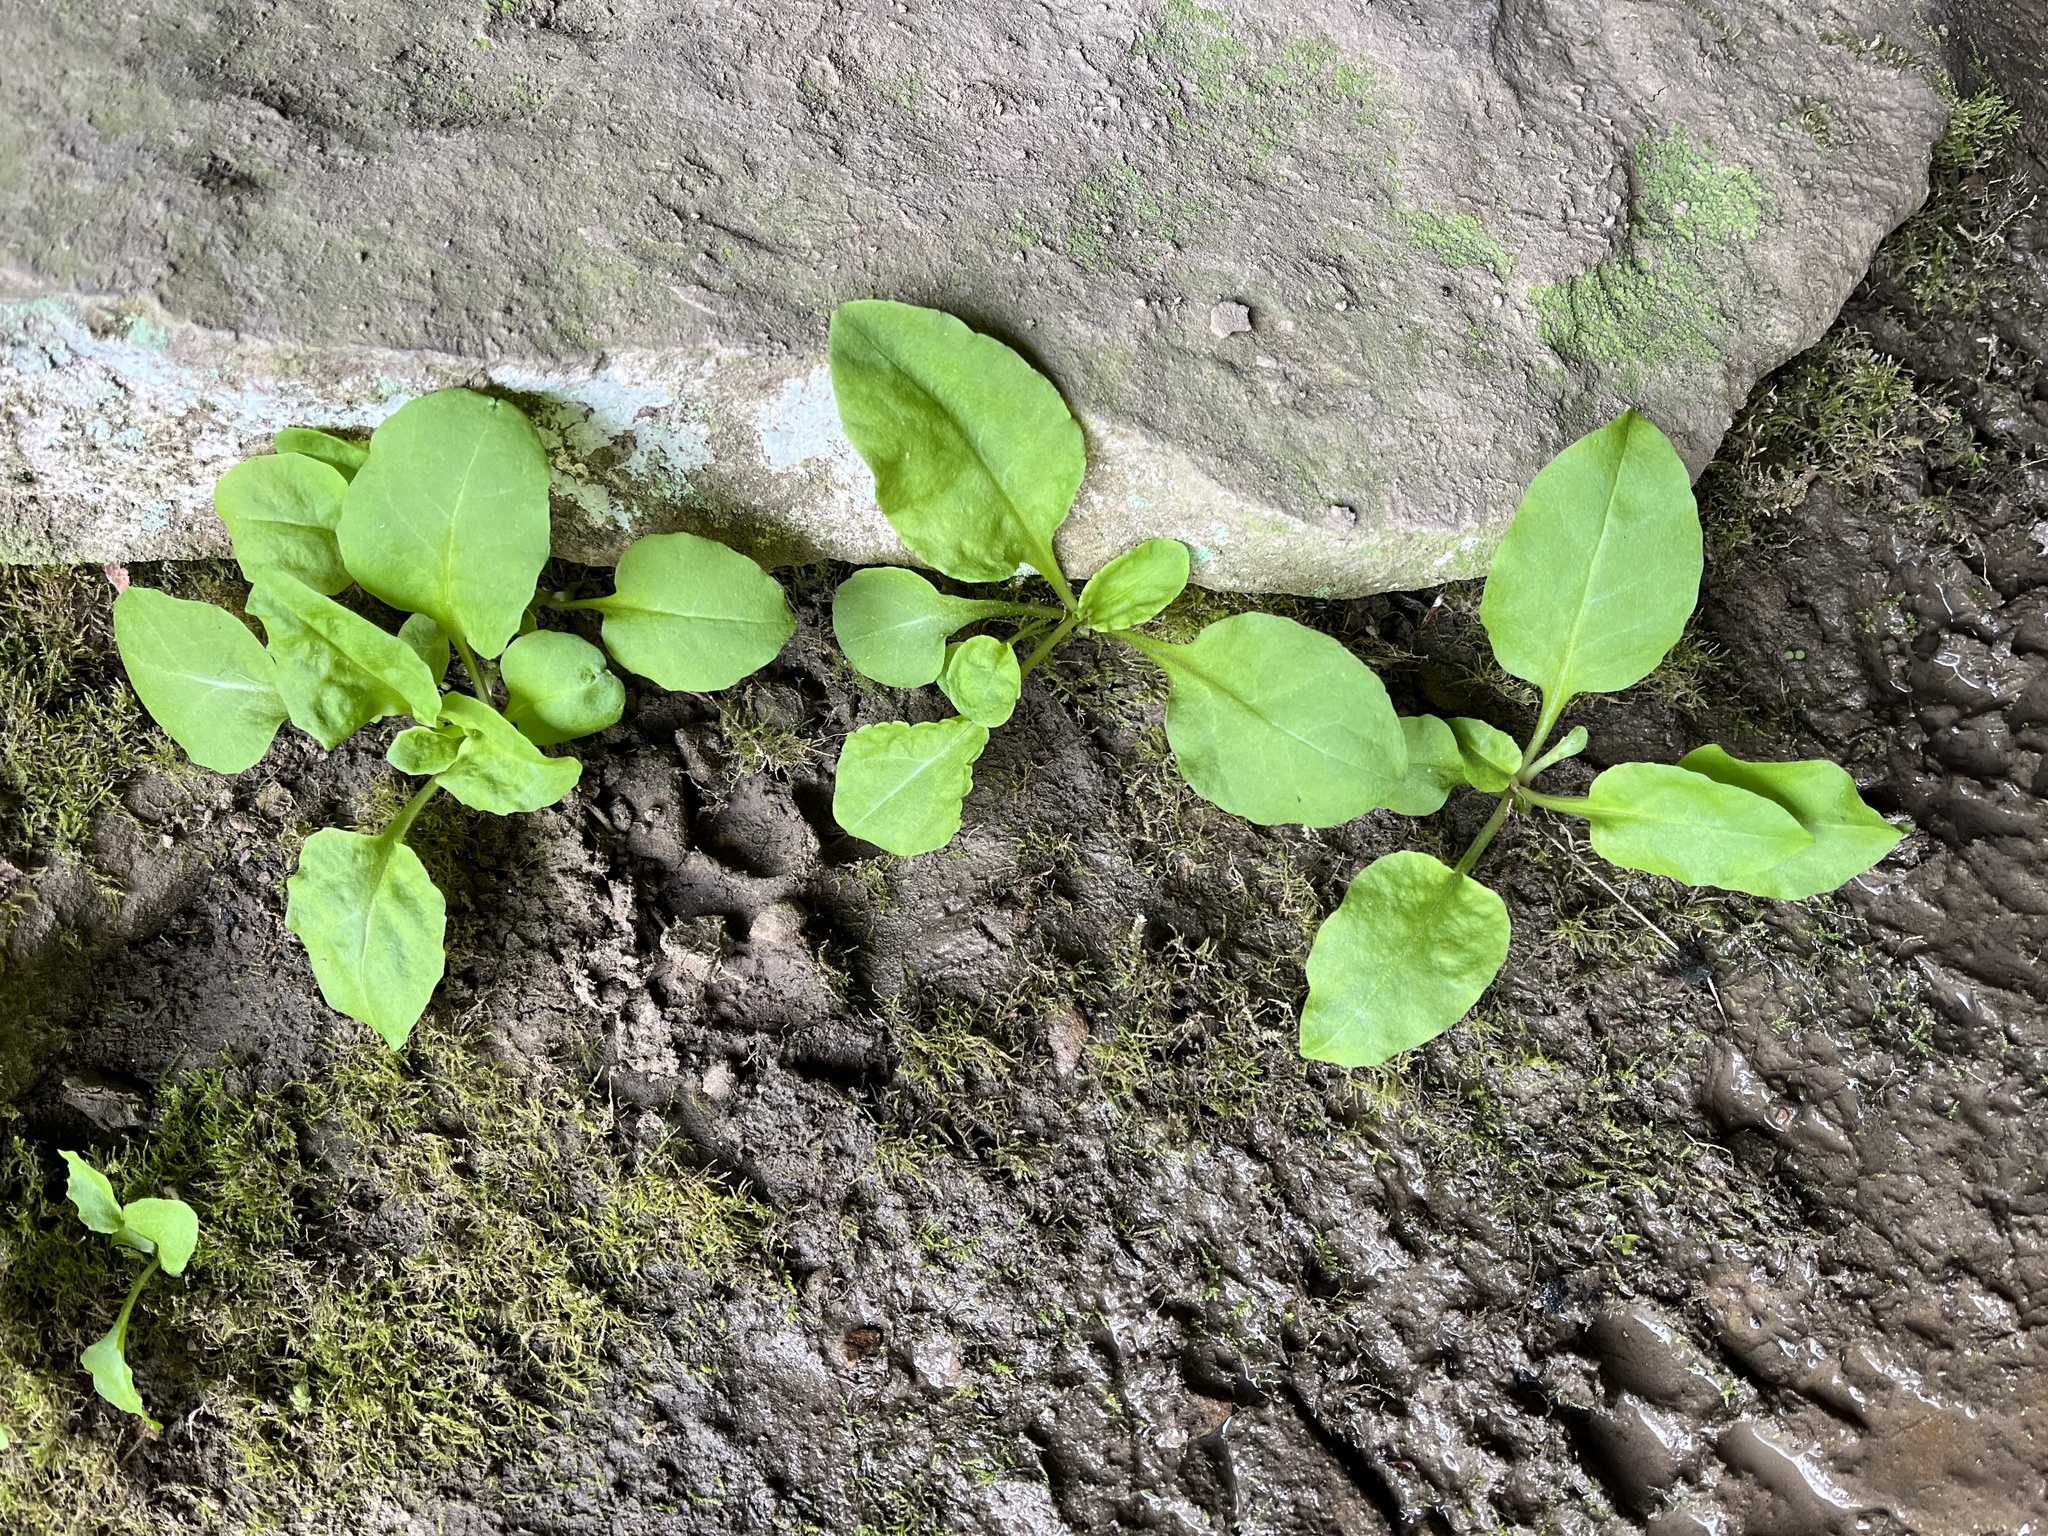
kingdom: Plantae
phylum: Tracheophyta
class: Magnoliopsida
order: Ericales
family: Primulaceae
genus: Dodecatheon
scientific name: Dodecatheon frenchii
